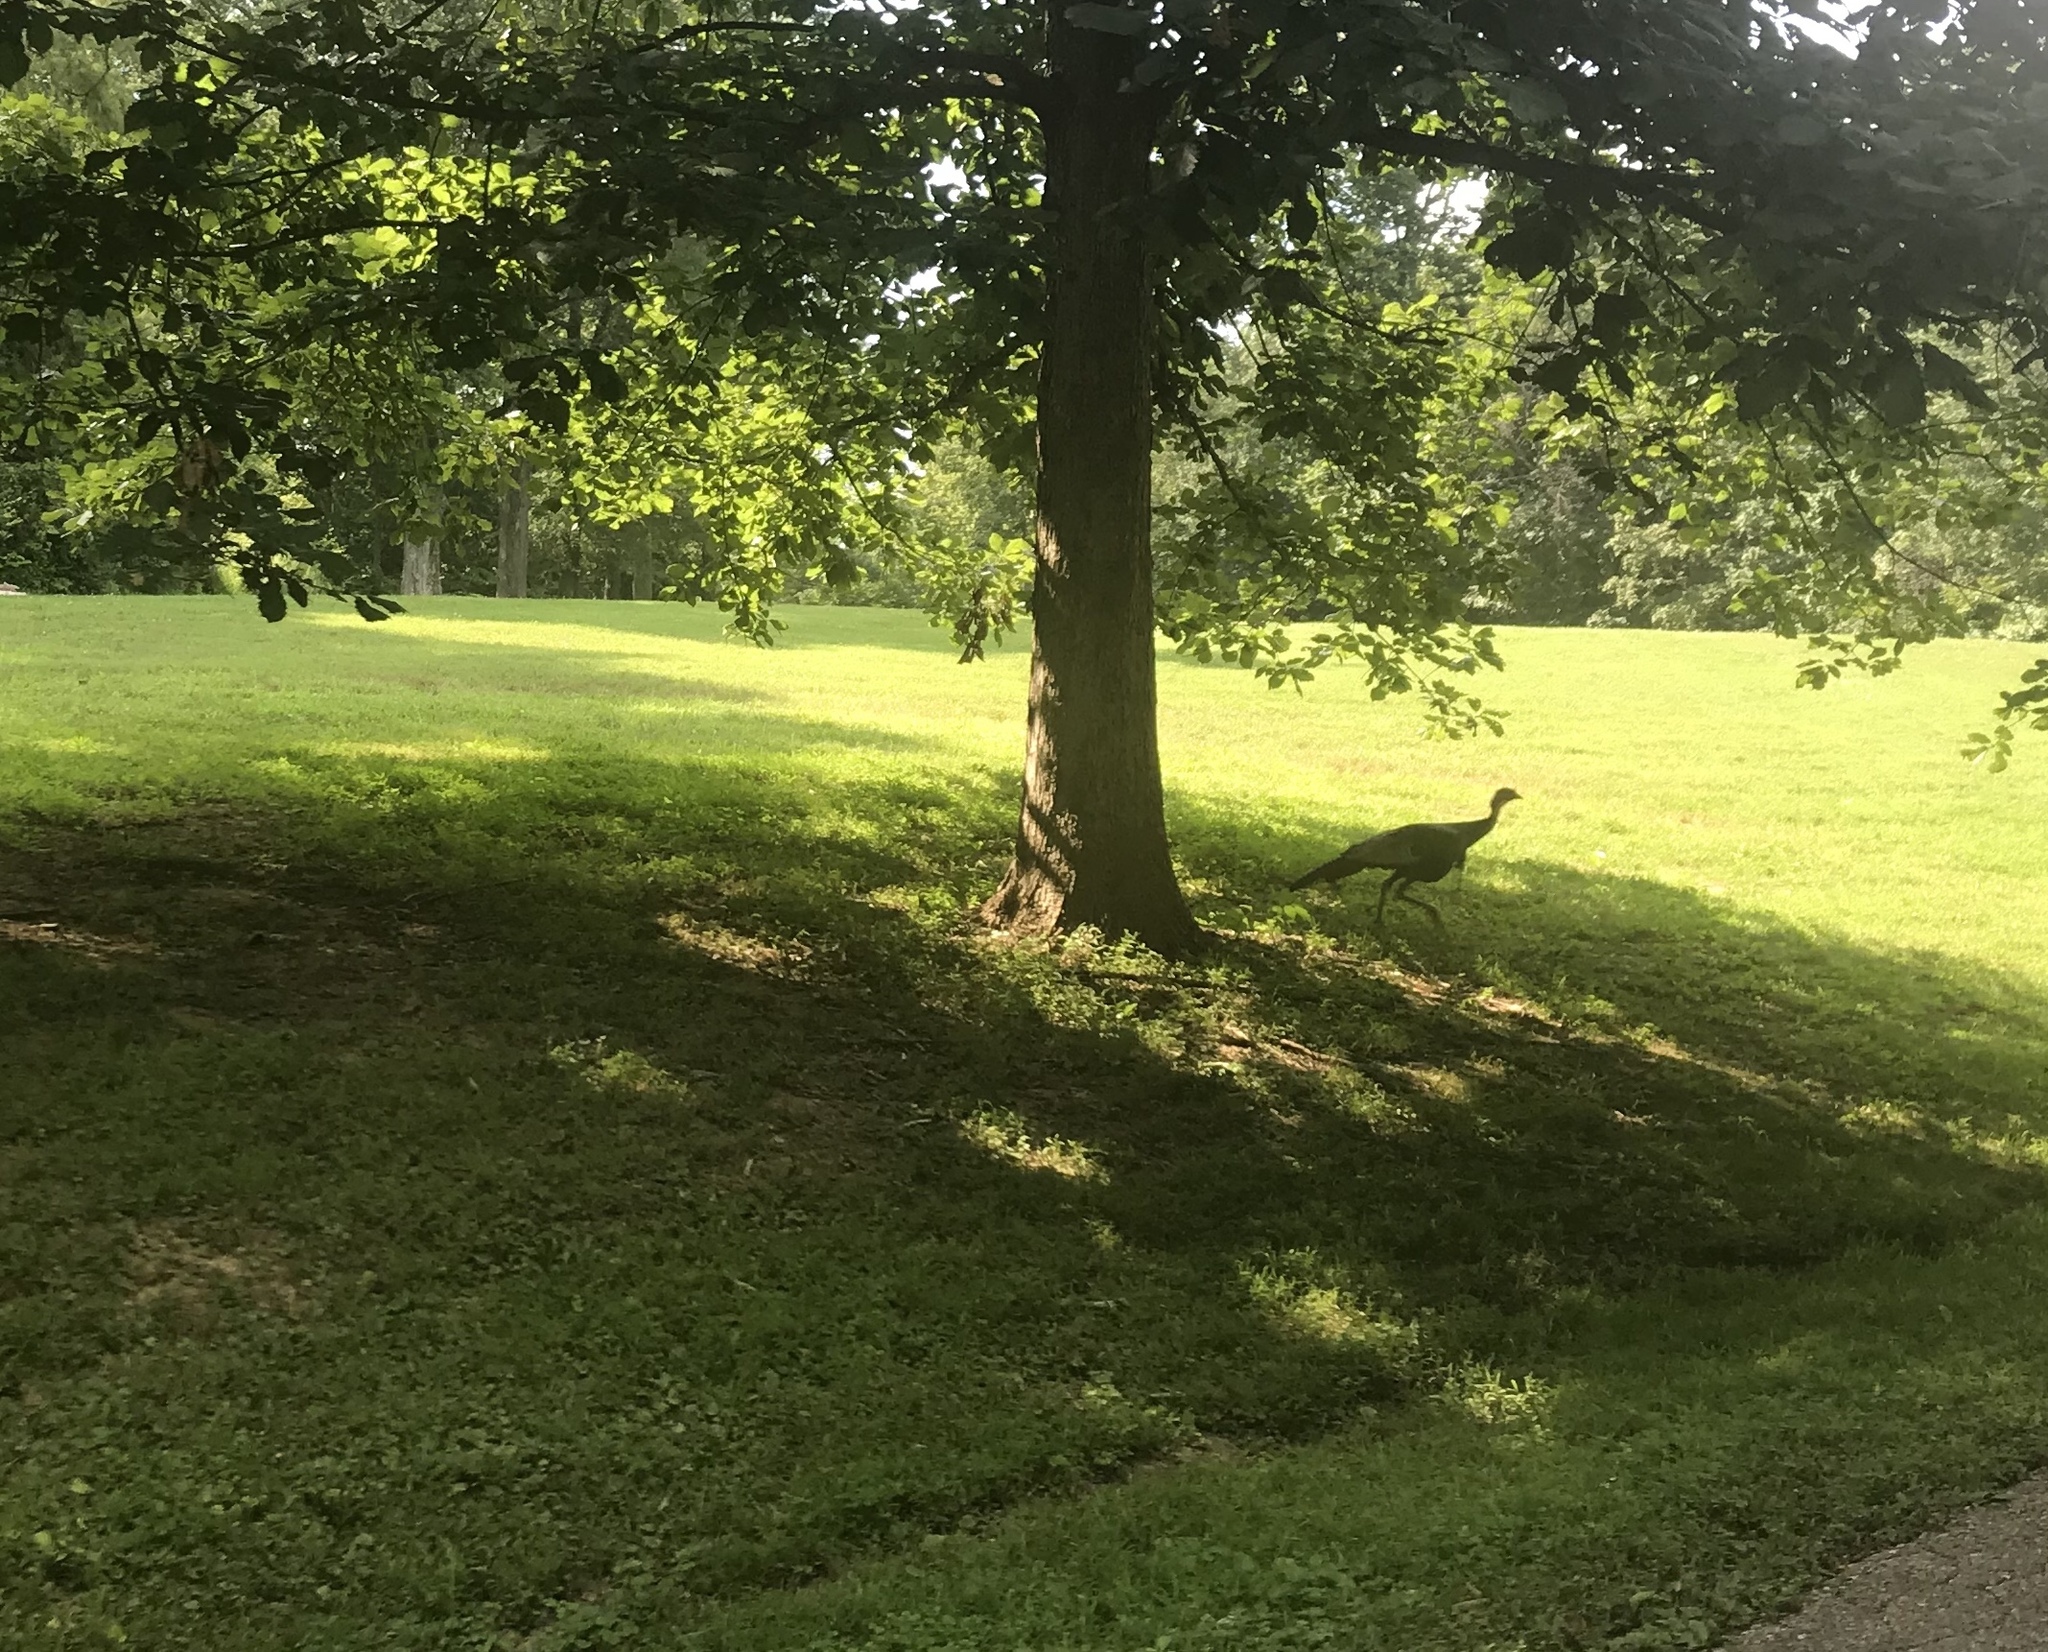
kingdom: Animalia
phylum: Chordata
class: Aves
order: Galliformes
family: Phasianidae
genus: Meleagris
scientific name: Meleagris gallopavo
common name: Wild turkey
